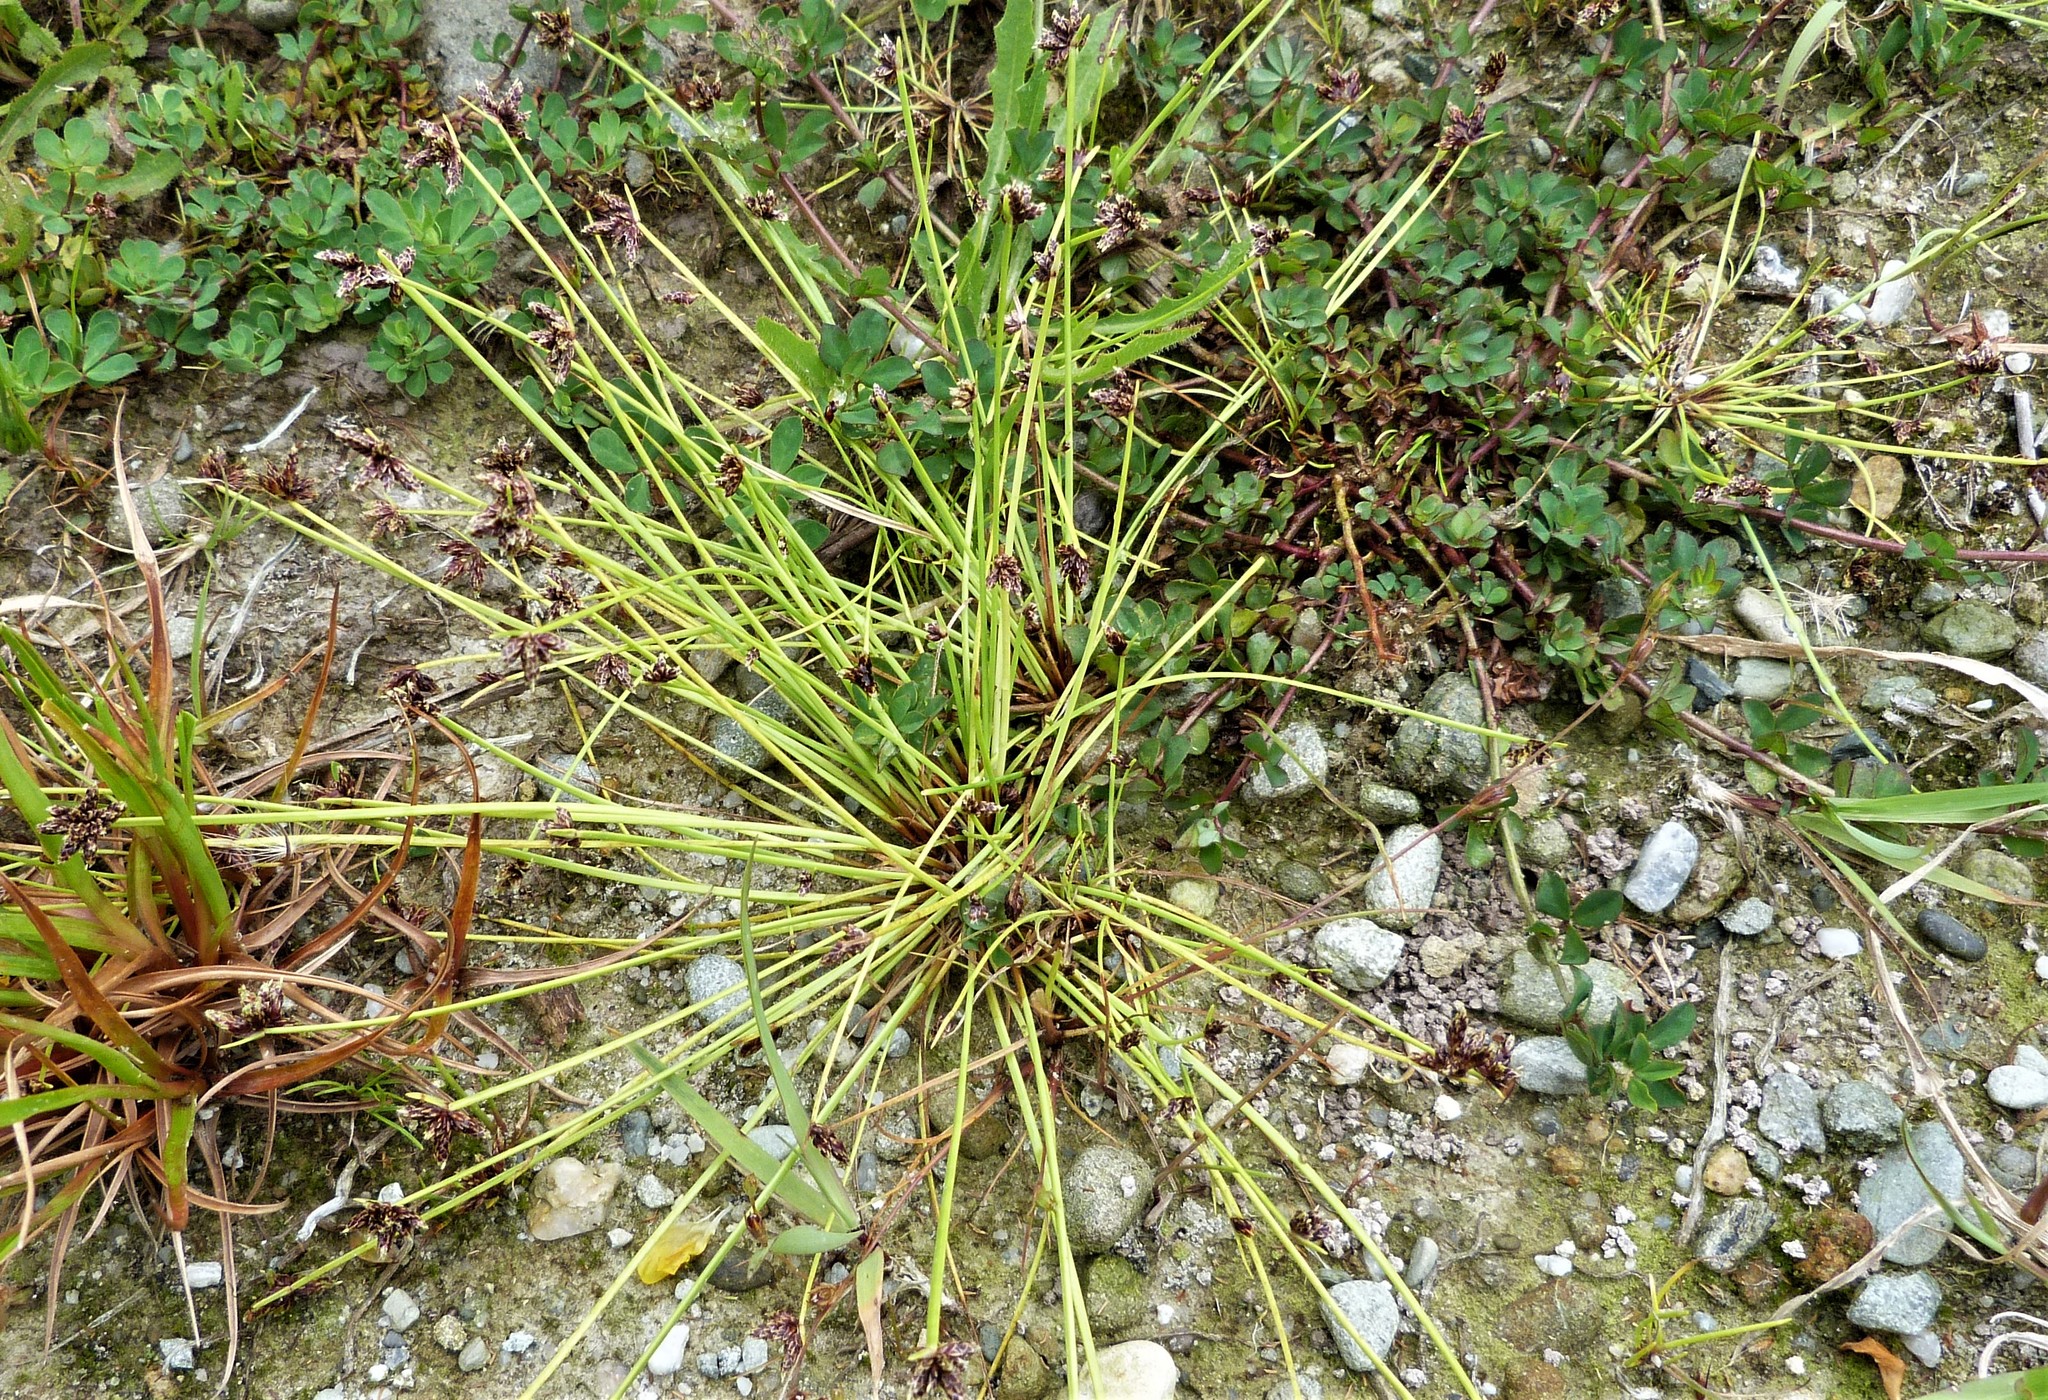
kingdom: Plantae
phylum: Tracheophyta
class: Liliopsida
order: Poales
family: Cyperaceae
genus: Isolepis
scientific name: Isolepis distigmatosa
